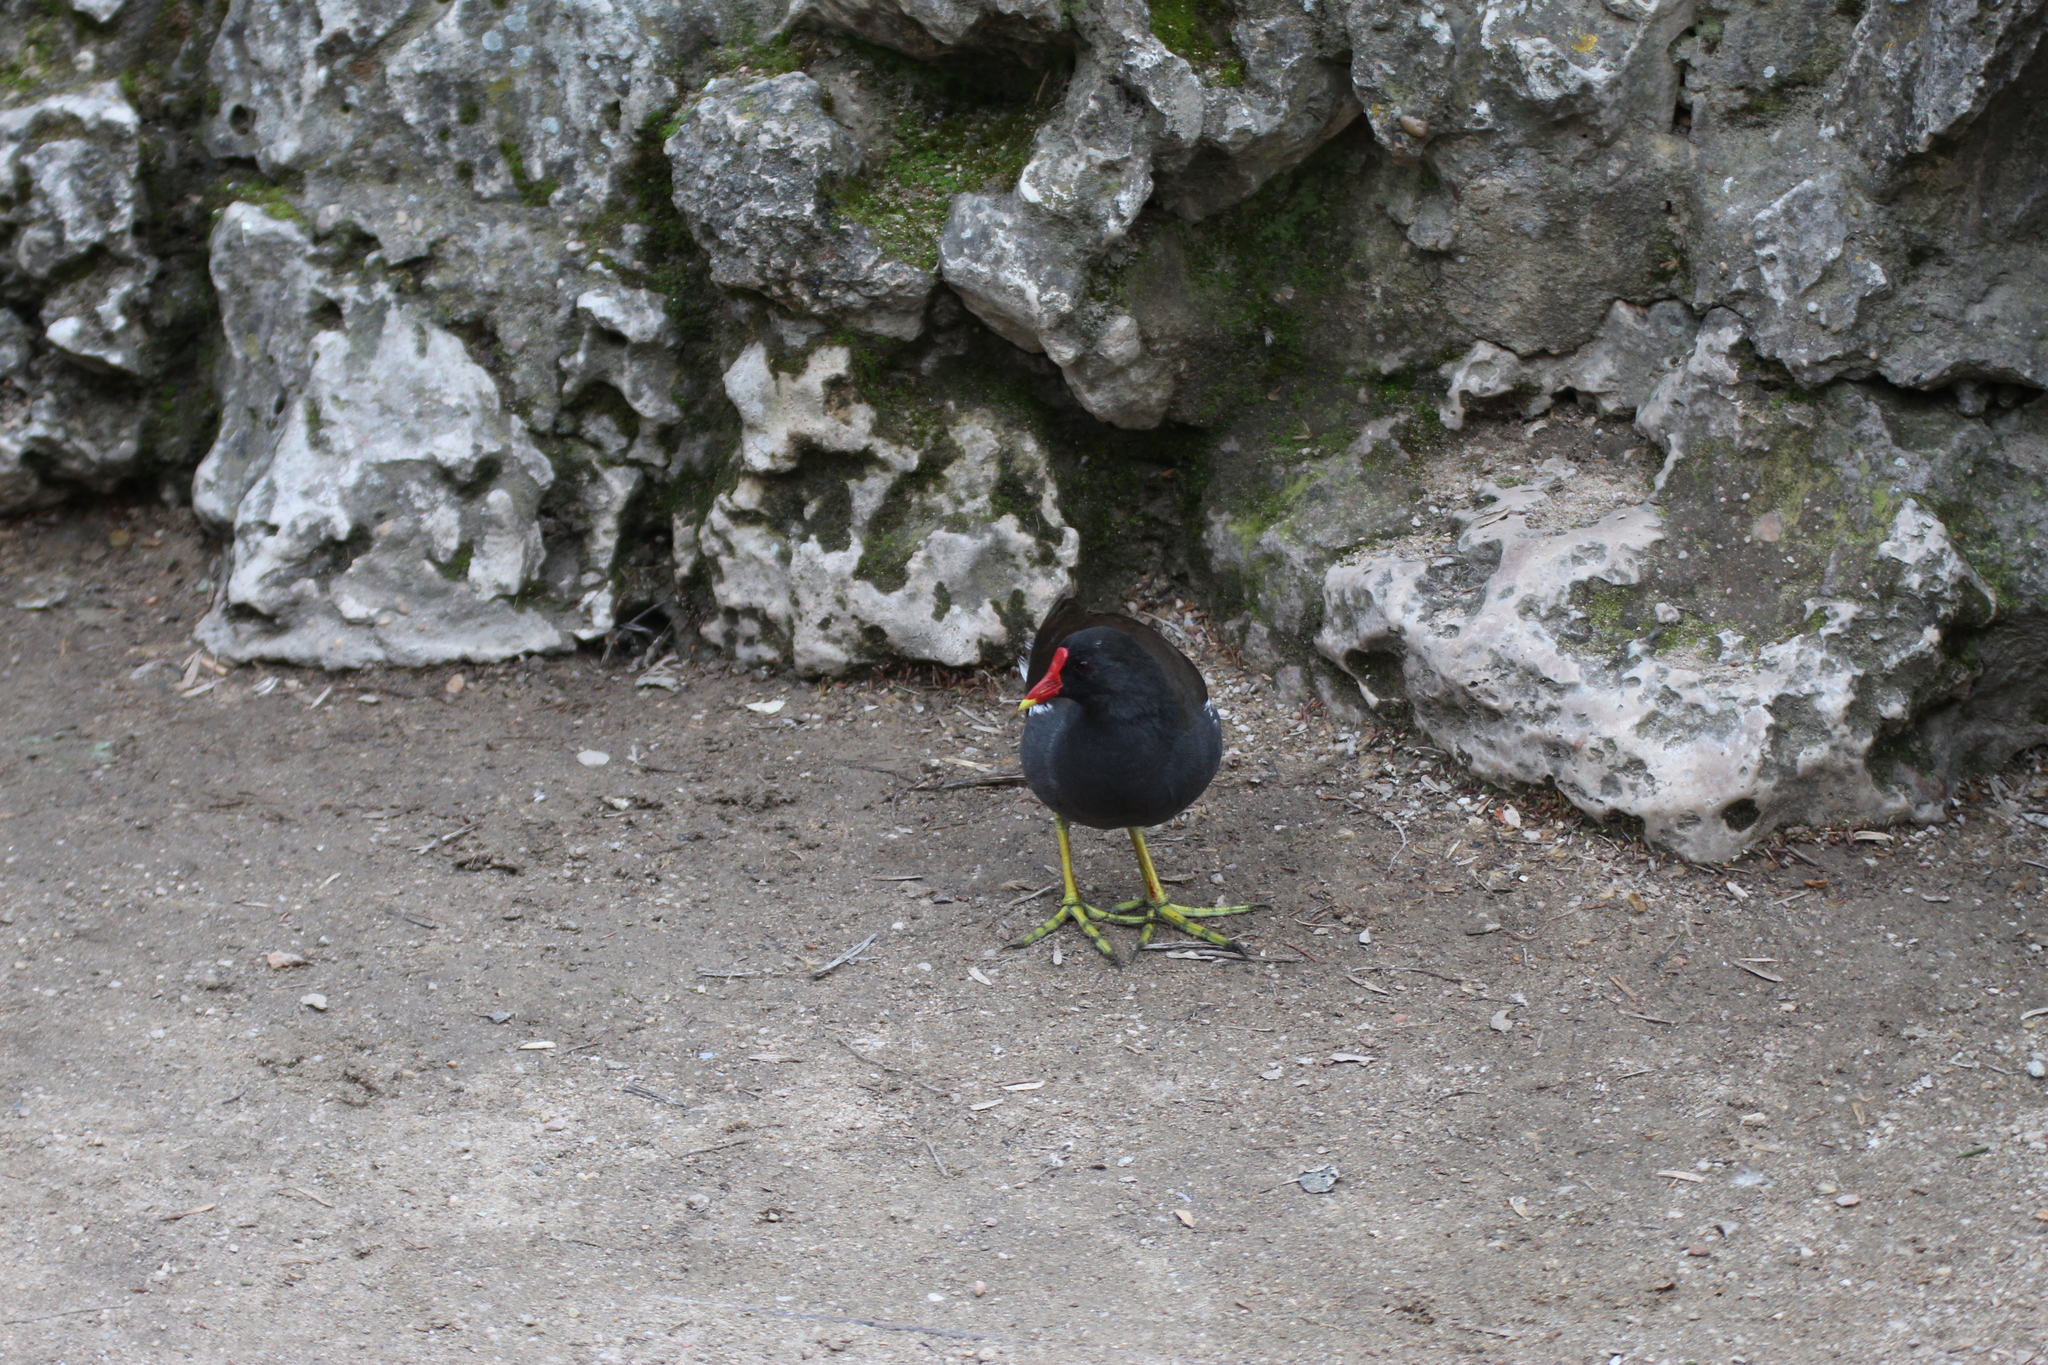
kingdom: Animalia
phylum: Chordata
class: Aves
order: Gruiformes
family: Rallidae
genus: Gallinula
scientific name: Gallinula chloropus
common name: Common moorhen
